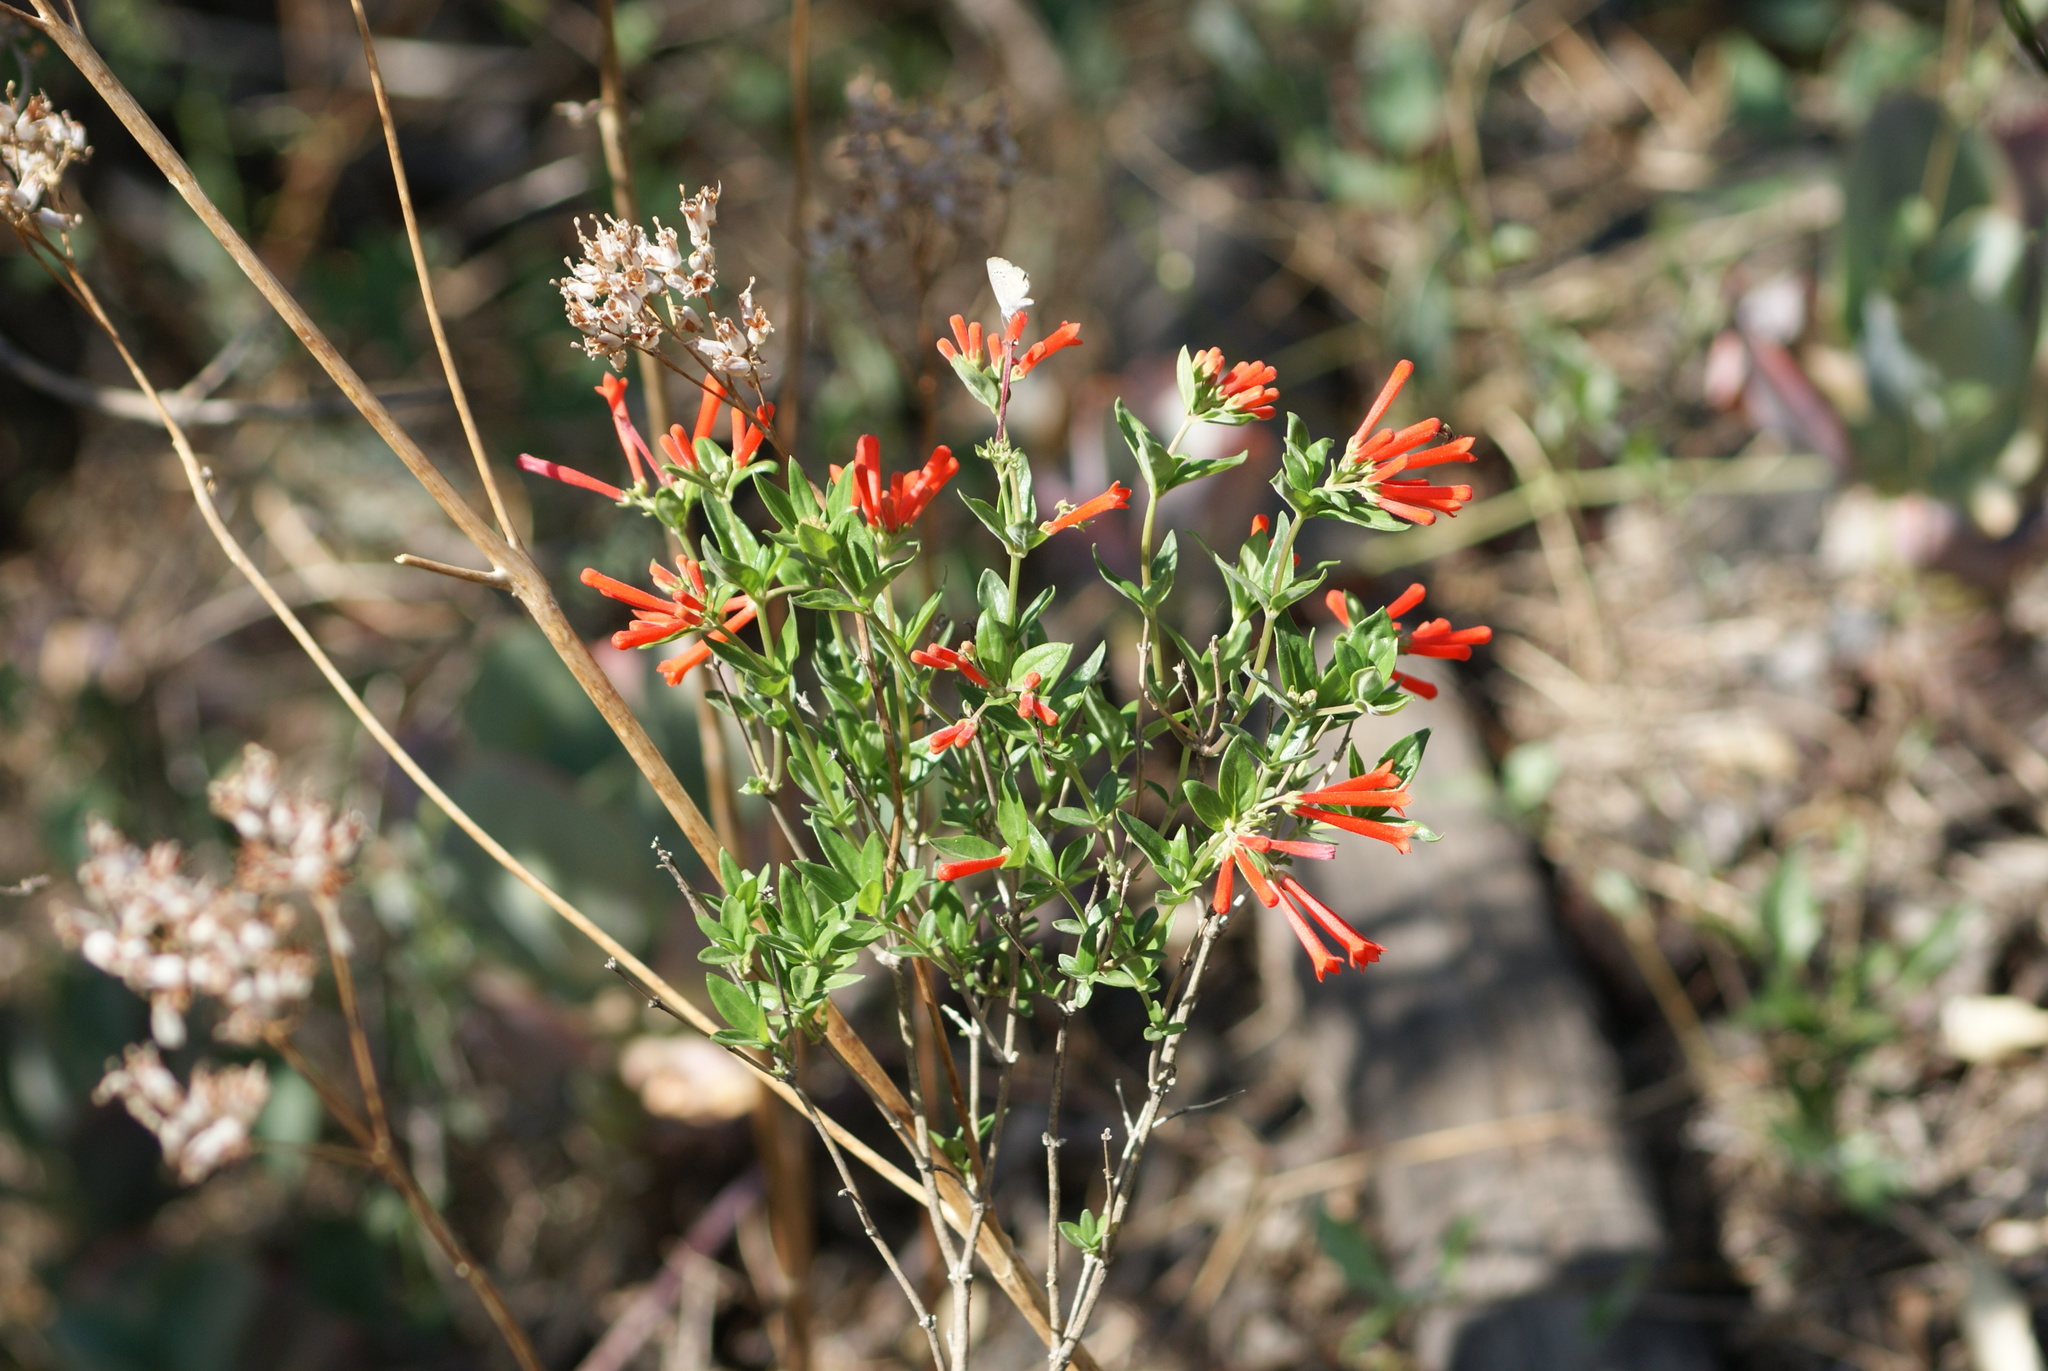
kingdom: Plantae
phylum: Tracheophyta
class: Magnoliopsida
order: Gentianales
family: Rubiaceae
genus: Bouvardia
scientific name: Bouvardia ternifolia
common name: Scarlet bouvardia
